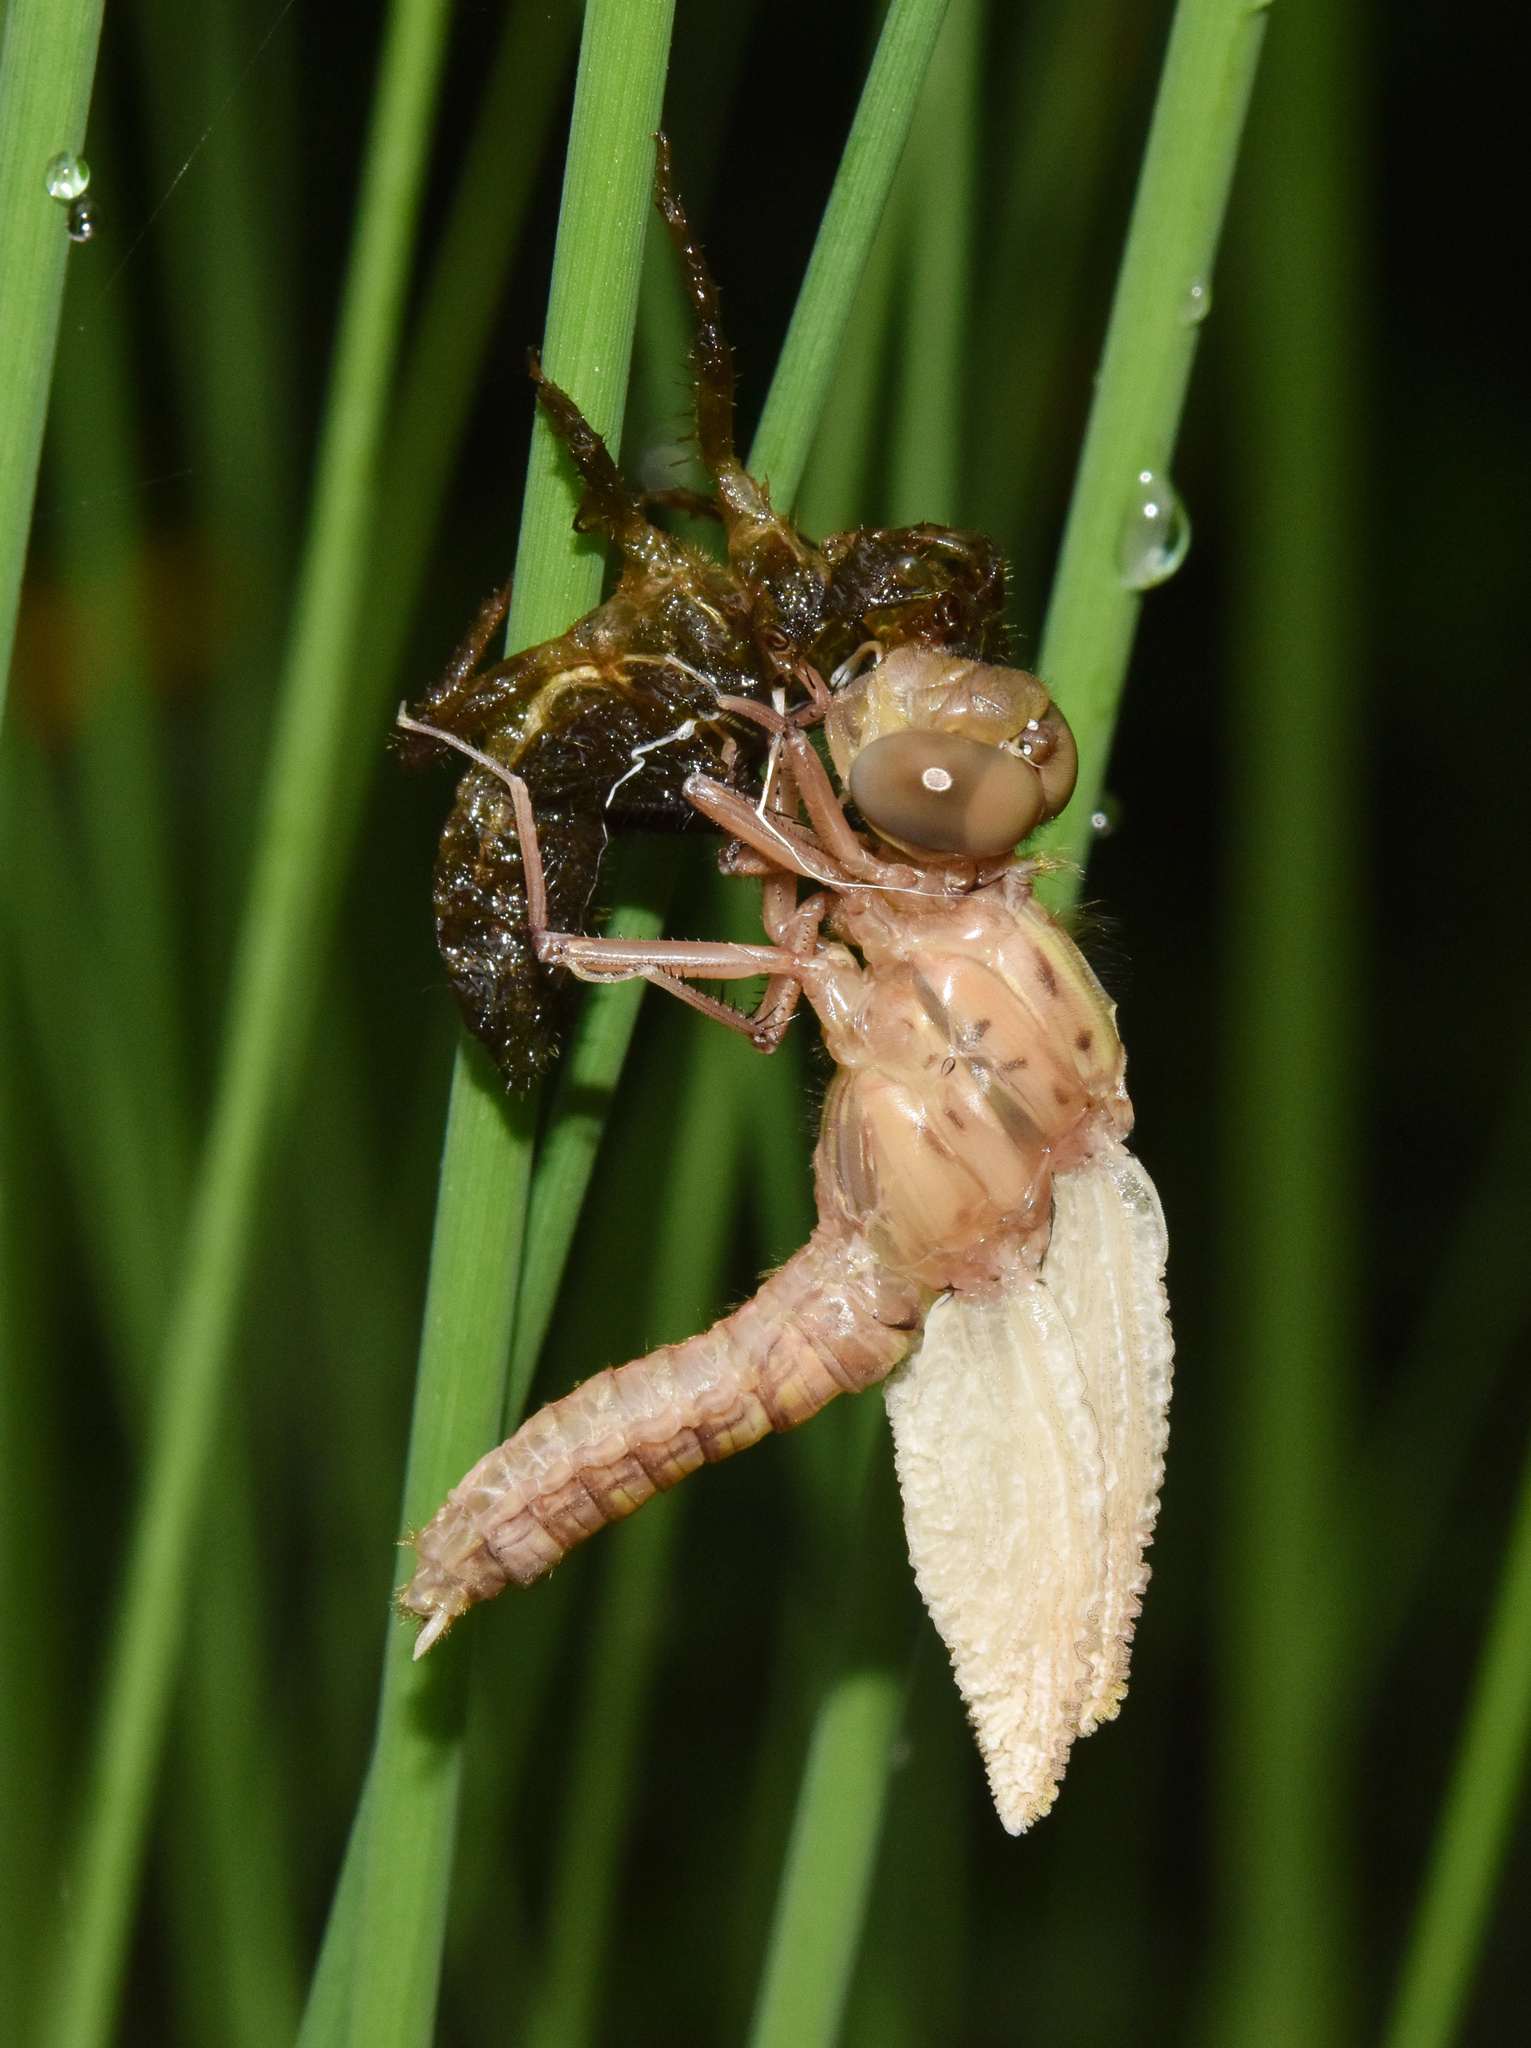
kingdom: Animalia
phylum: Arthropoda
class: Insecta
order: Odonata
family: Libellulidae
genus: Orthetrum
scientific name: Orthetrum julia
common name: Julia skimmer
